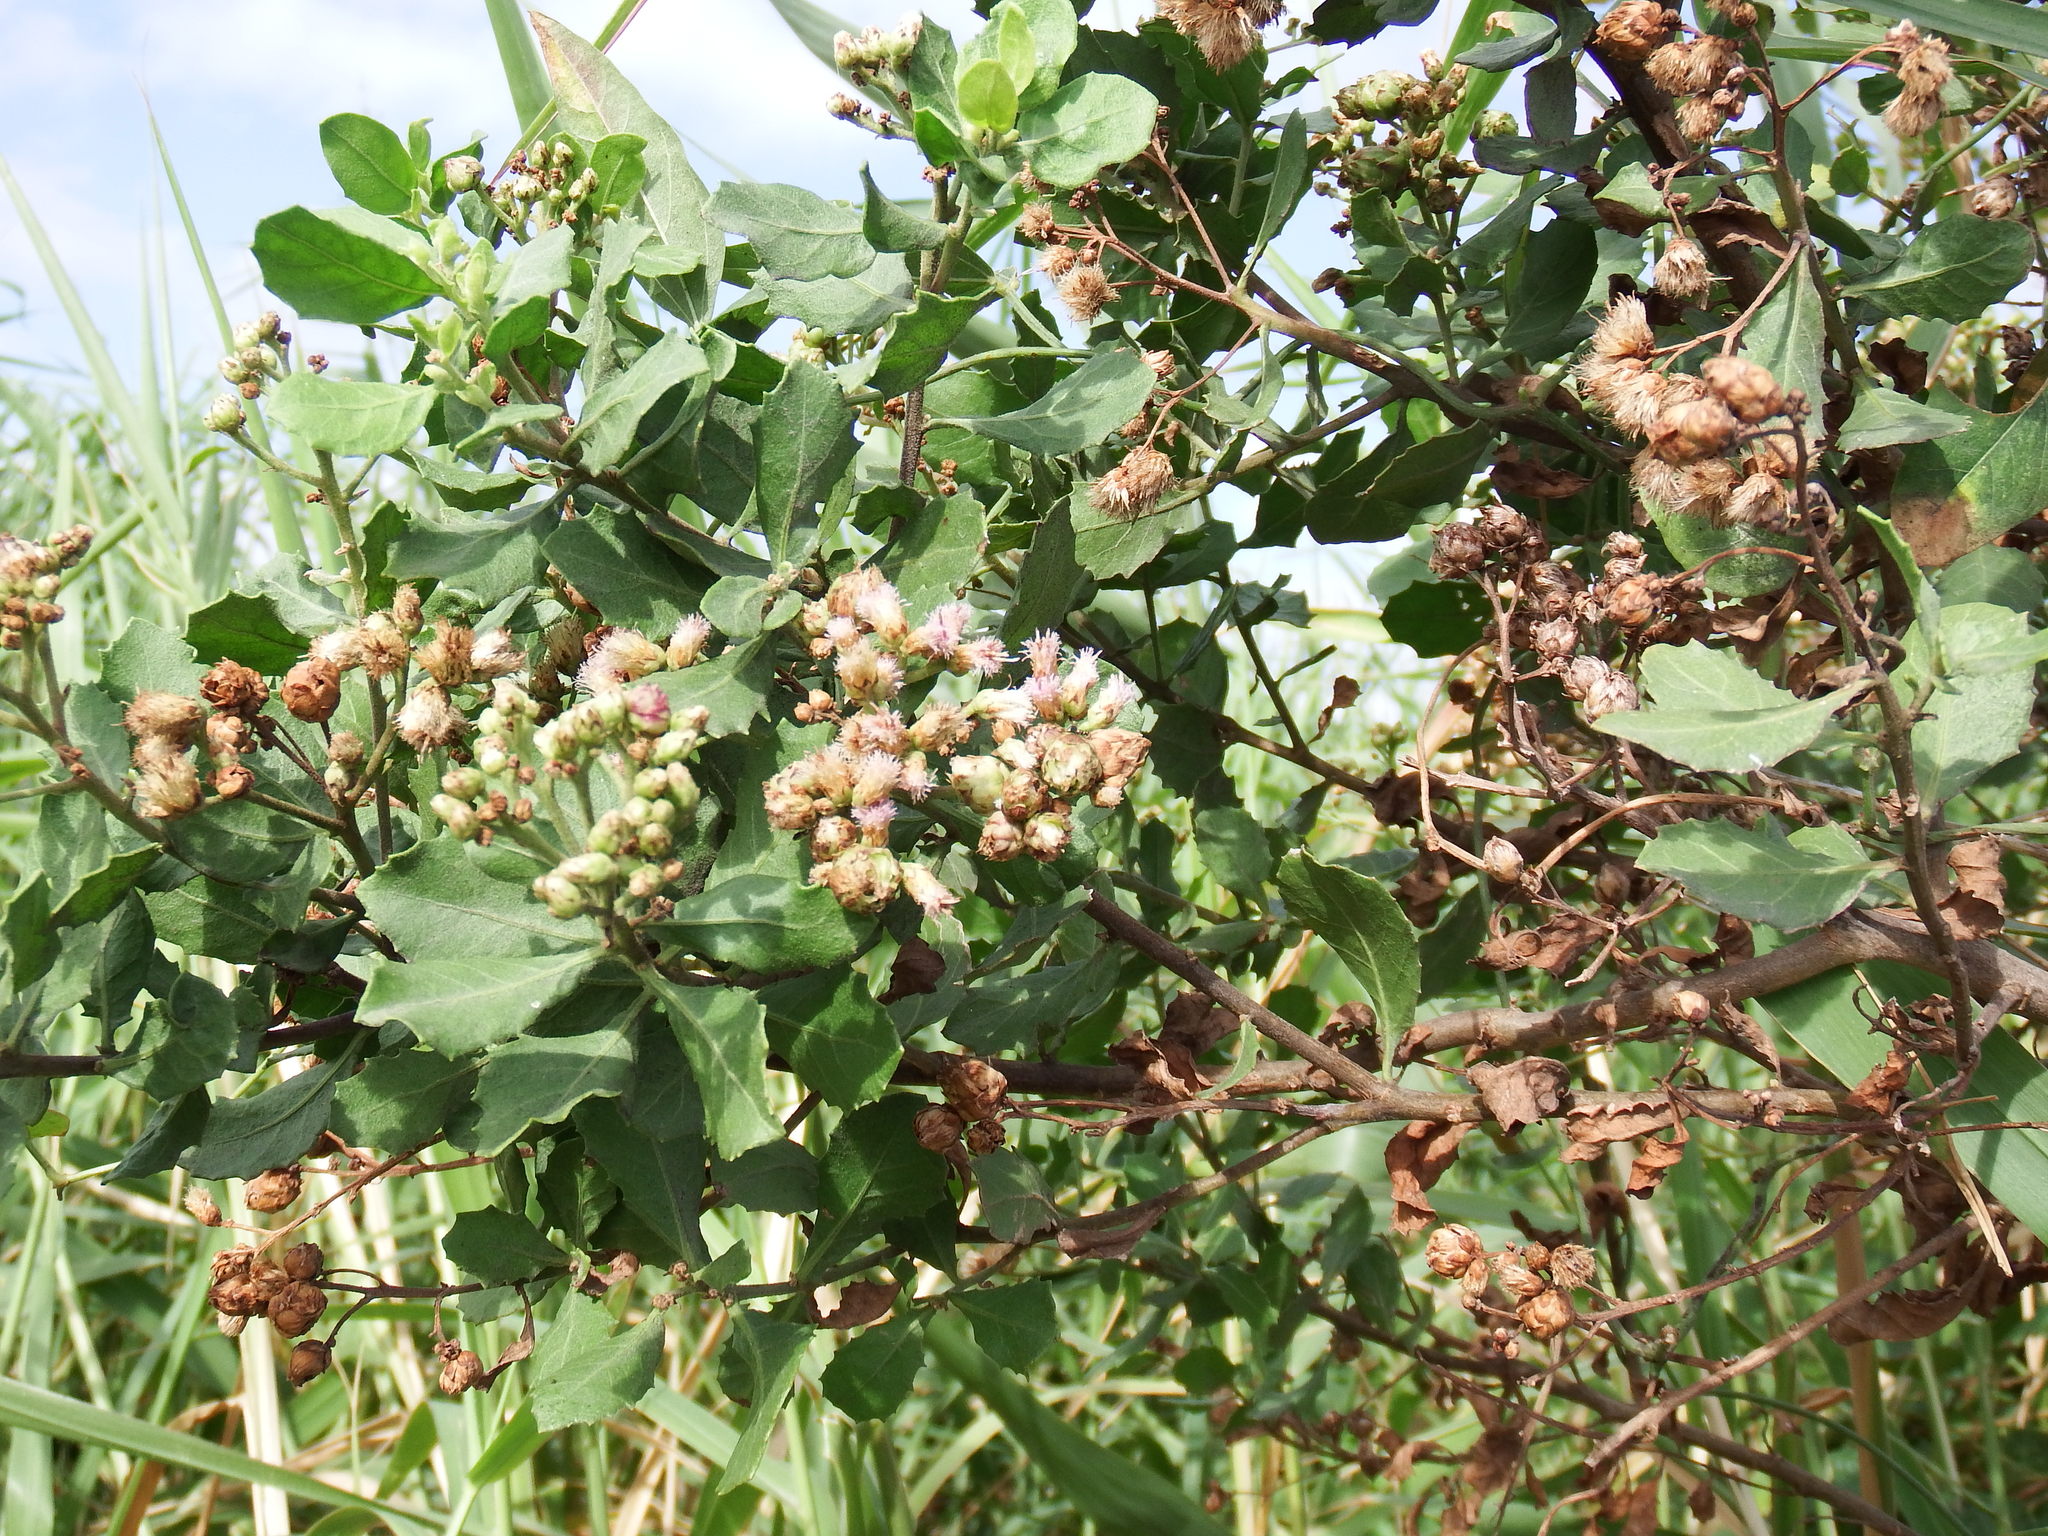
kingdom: Plantae
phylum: Tracheophyta
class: Magnoliopsida
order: Asterales
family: Asteraceae
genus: Pluchea
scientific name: Pluchea indica
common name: Indian fleabane
